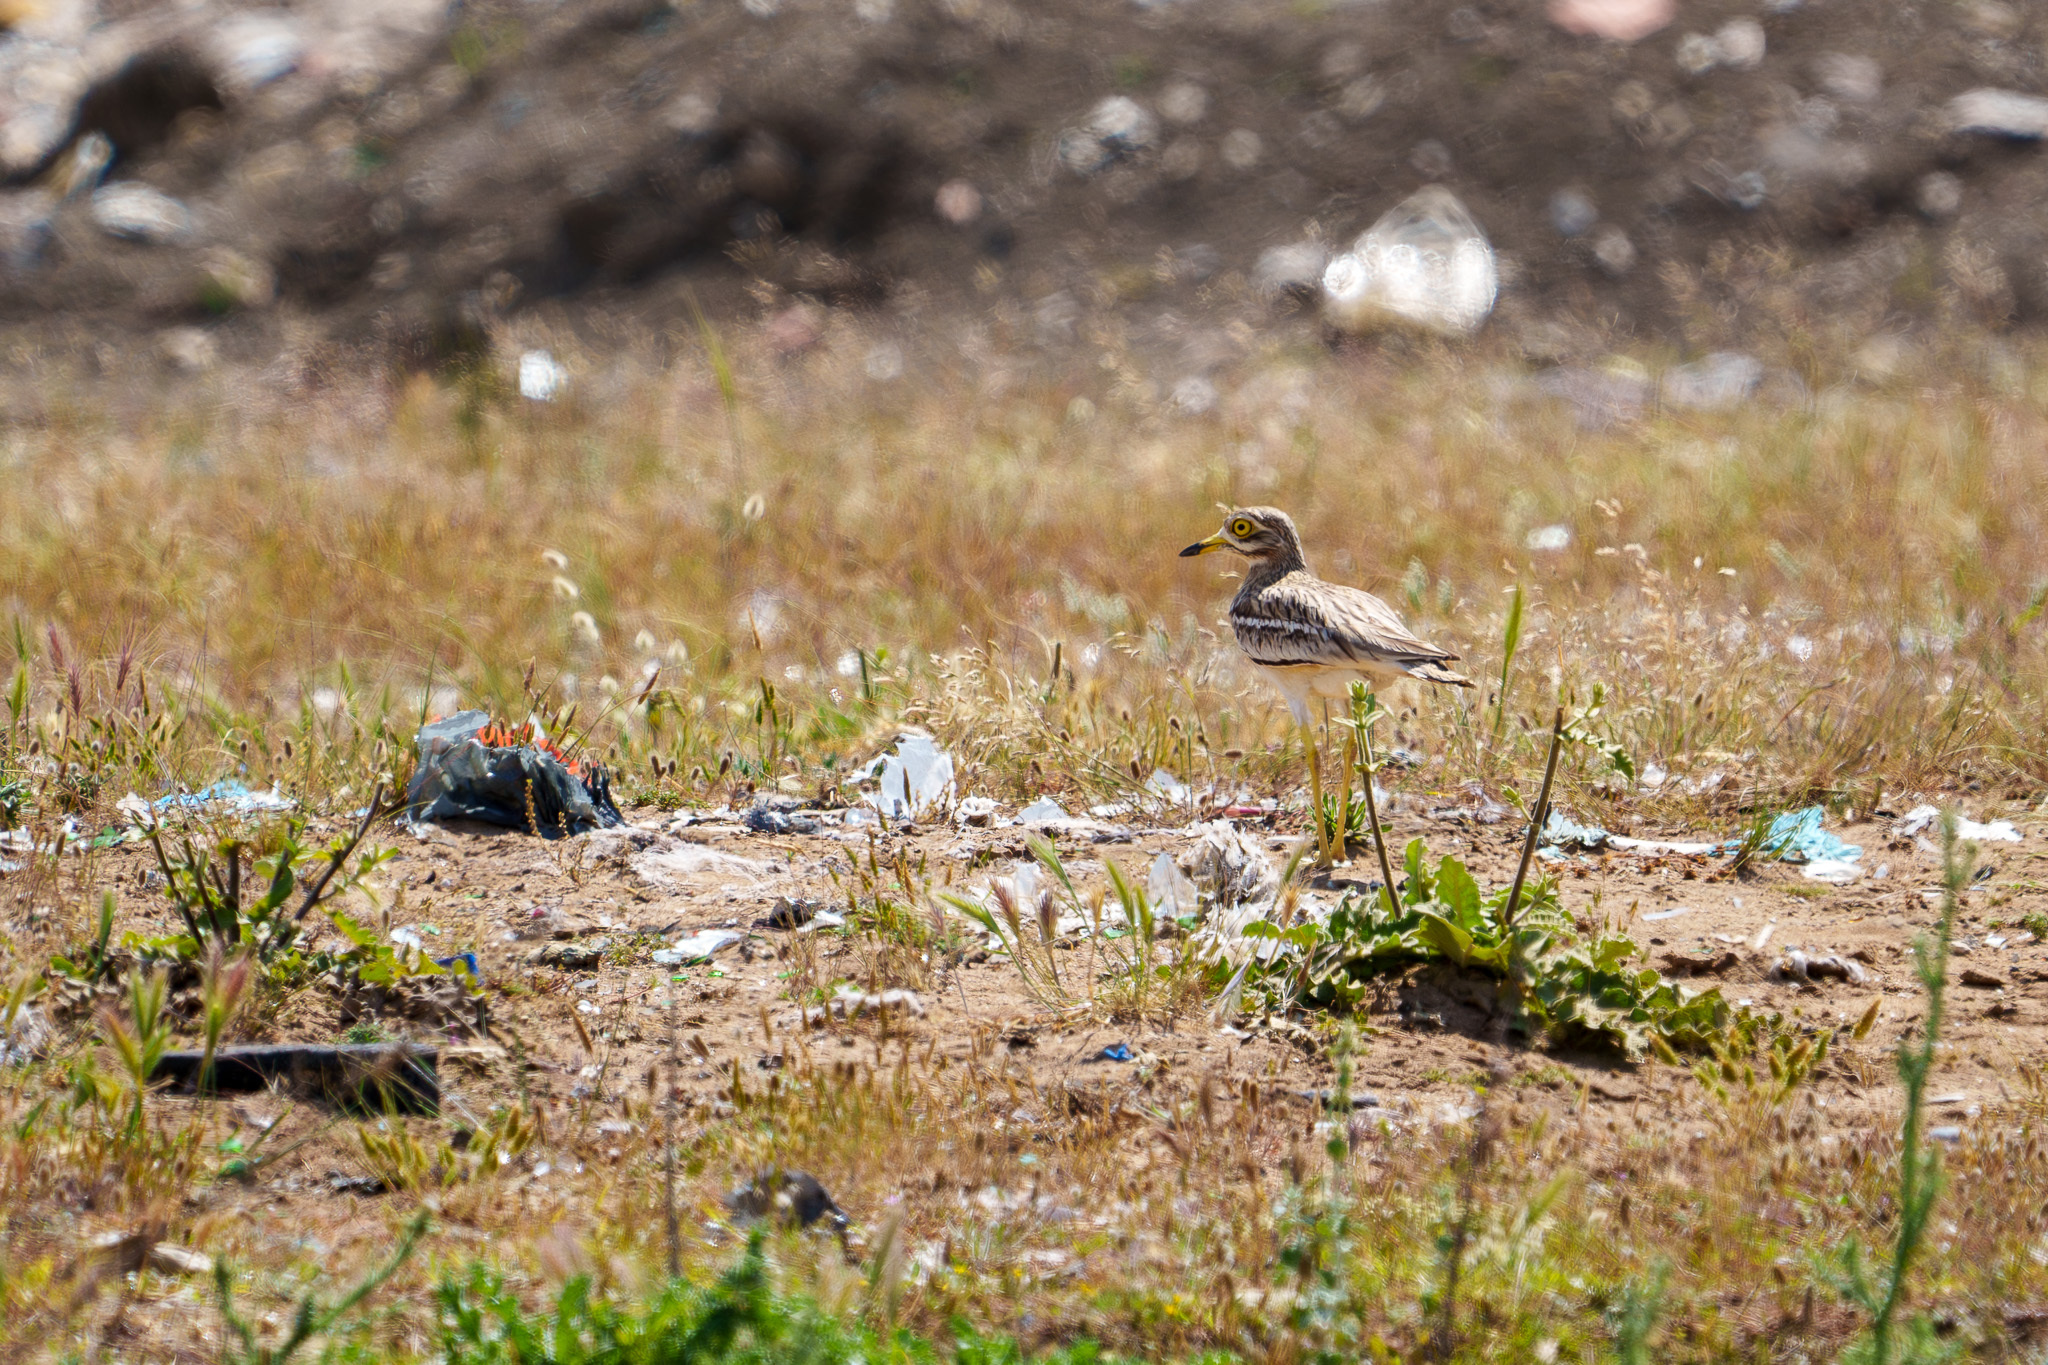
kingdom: Animalia
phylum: Chordata
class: Aves
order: Charadriiformes
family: Burhinidae
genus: Burhinus
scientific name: Burhinus oedicnemus
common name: Eurasian stone-curlew
